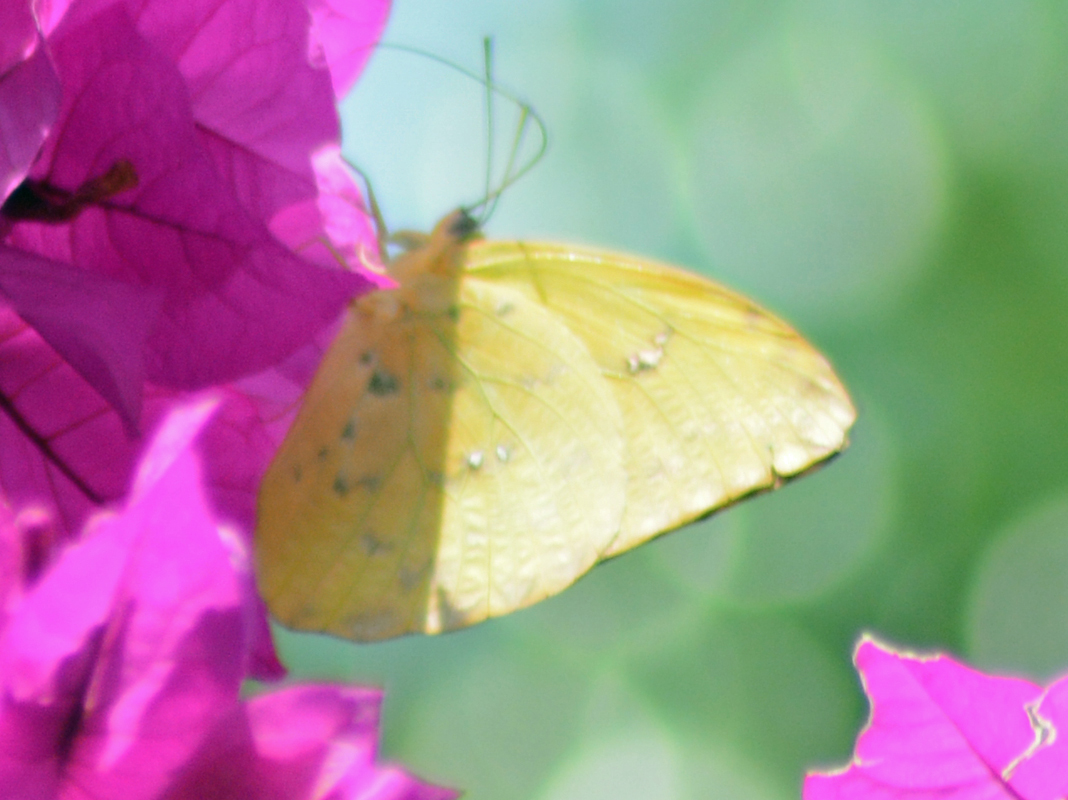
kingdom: Animalia
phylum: Arthropoda
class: Insecta
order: Lepidoptera
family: Pieridae
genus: Phoebis
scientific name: Phoebis philea
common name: Orange-barred giant sulphur
